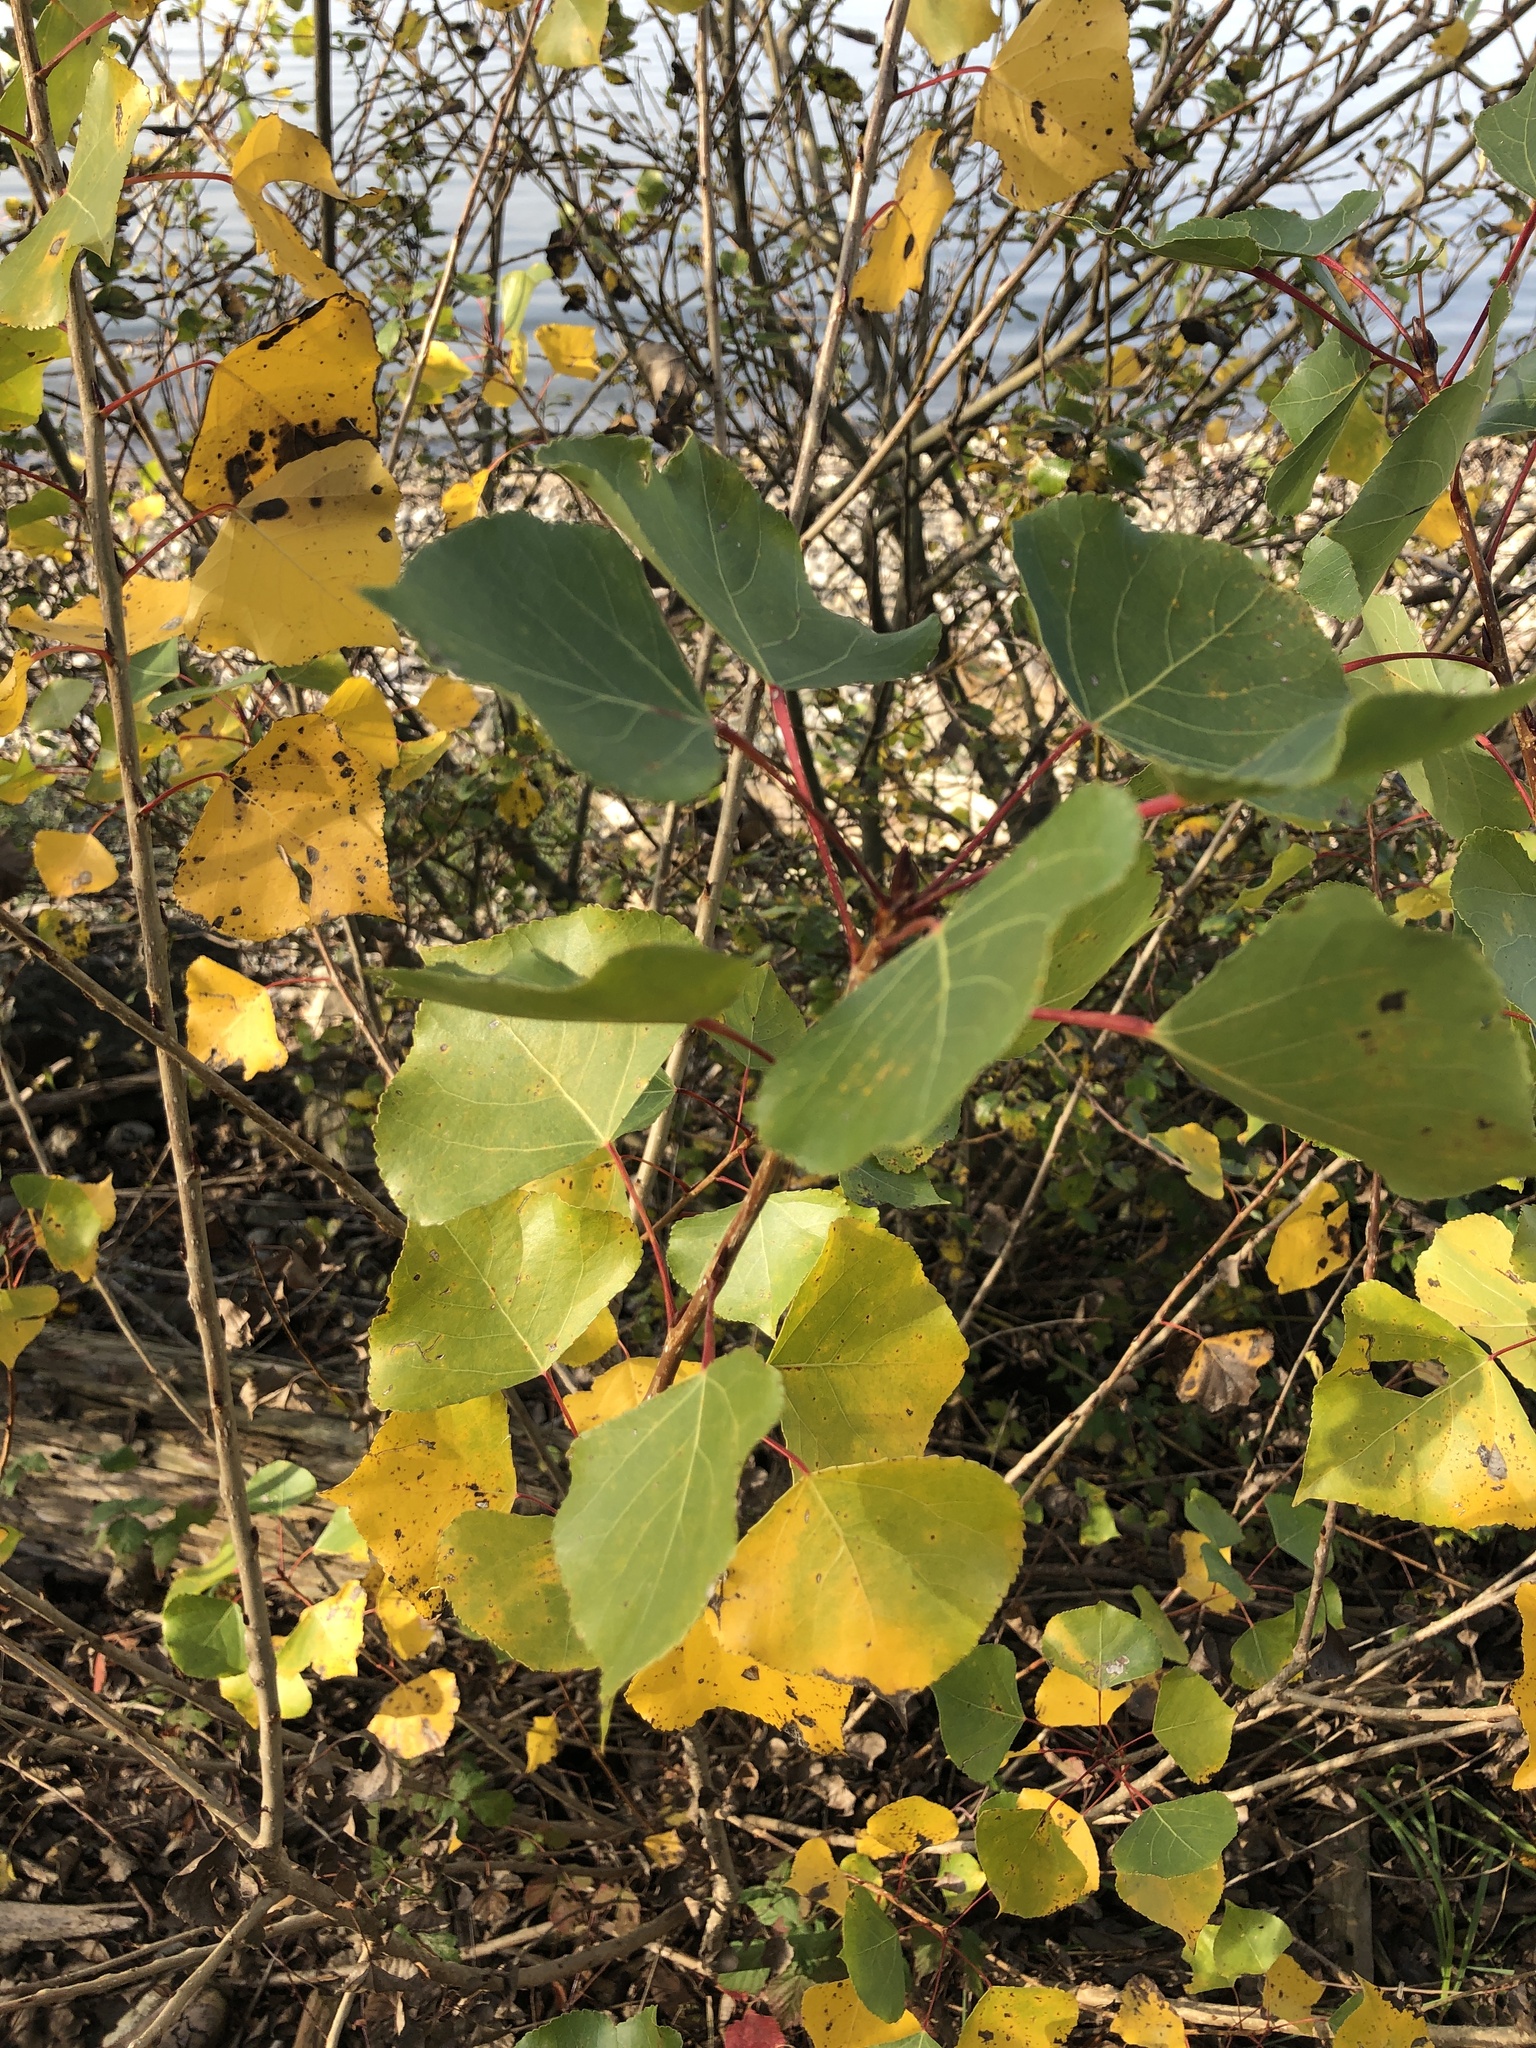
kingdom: Plantae
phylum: Tracheophyta
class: Magnoliopsida
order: Malpighiales
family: Salicaceae
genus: Populus
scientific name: Populus nigra
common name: Black poplar
